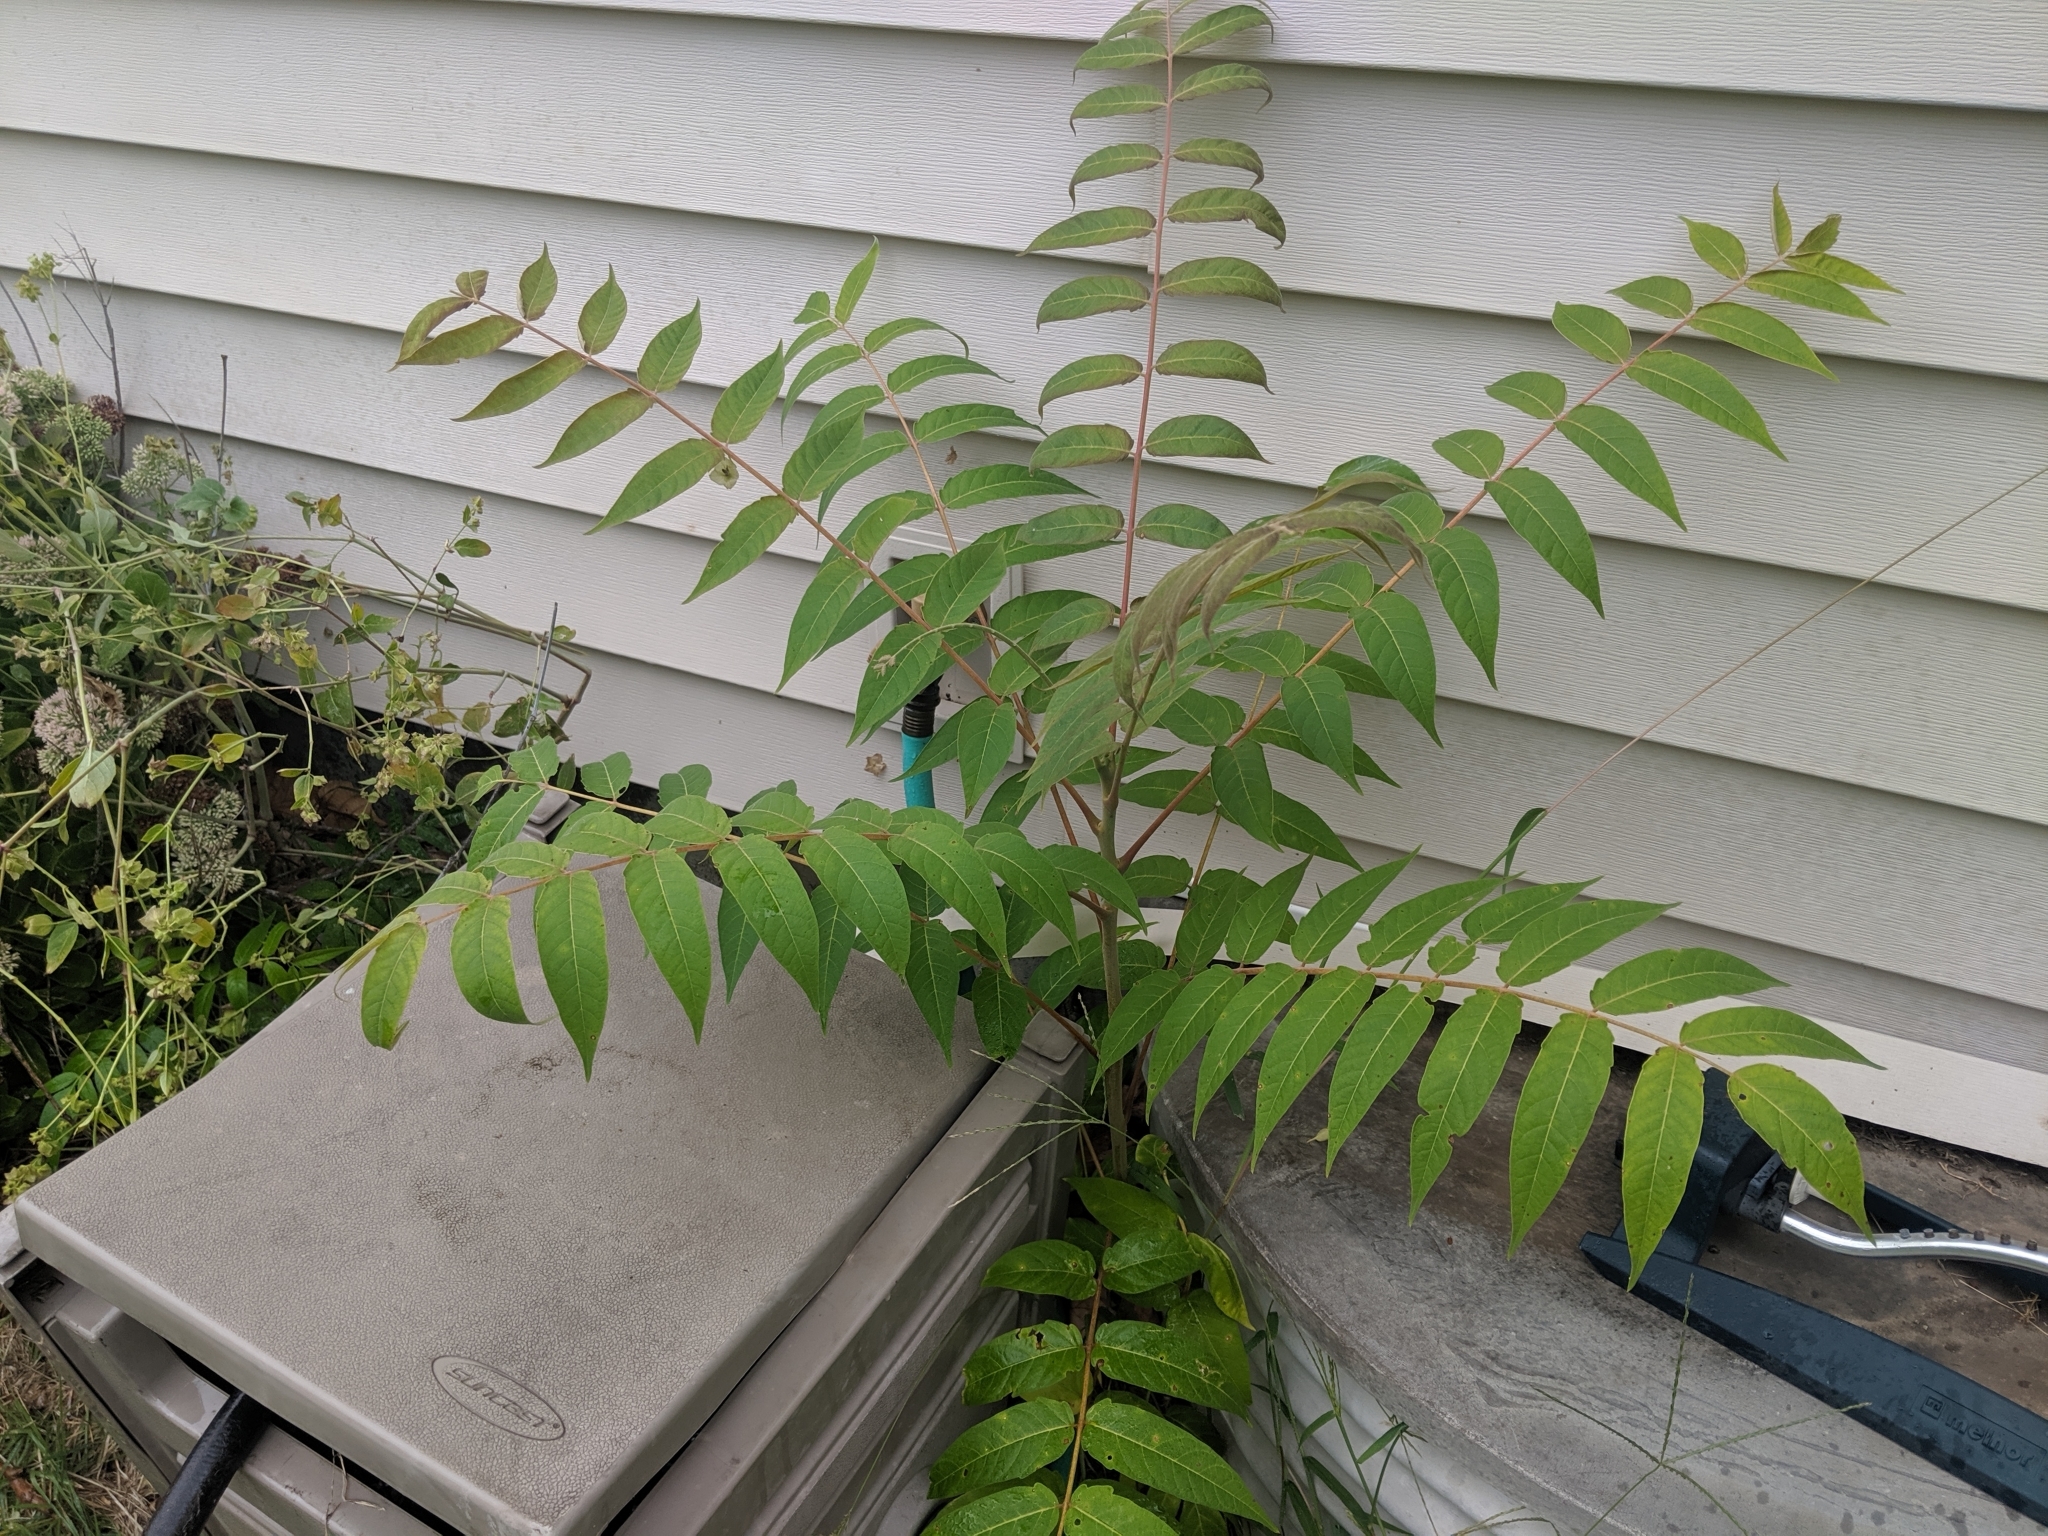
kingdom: Plantae
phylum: Tracheophyta
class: Magnoliopsida
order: Sapindales
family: Simaroubaceae
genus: Ailanthus
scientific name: Ailanthus altissima
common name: Tree-of-heaven
